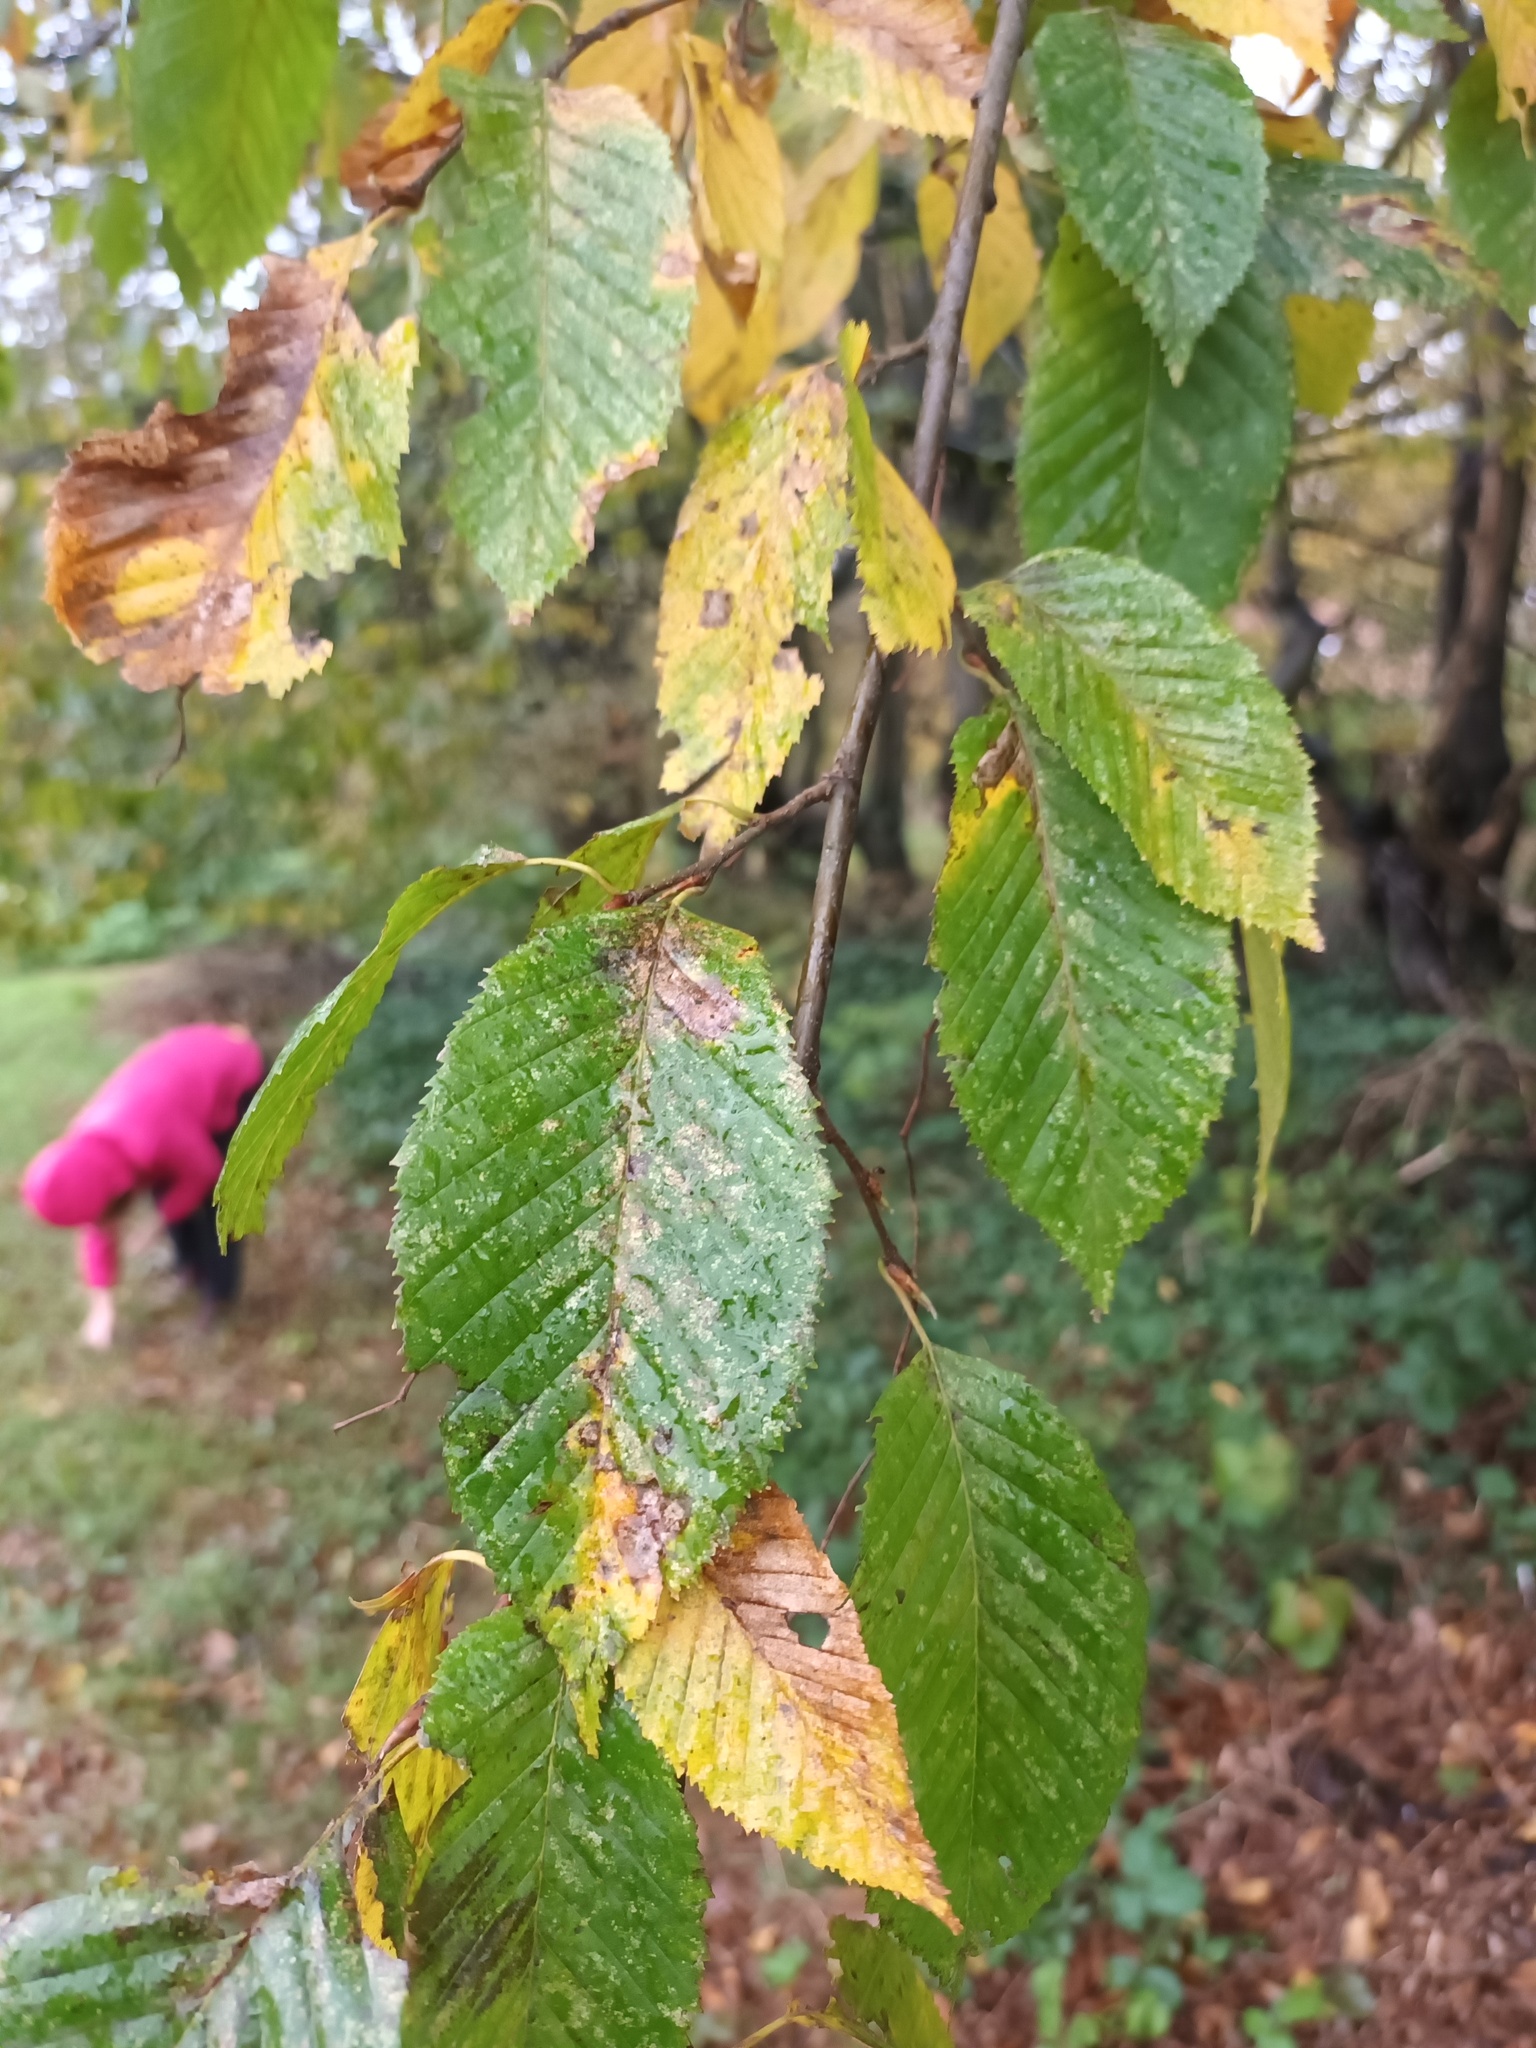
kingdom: Plantae
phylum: Tracheophyta
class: Magnoliopsida
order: Fagales
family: Betulaceae
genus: Carpinus
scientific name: Carpinus betulus
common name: Hornbeam
